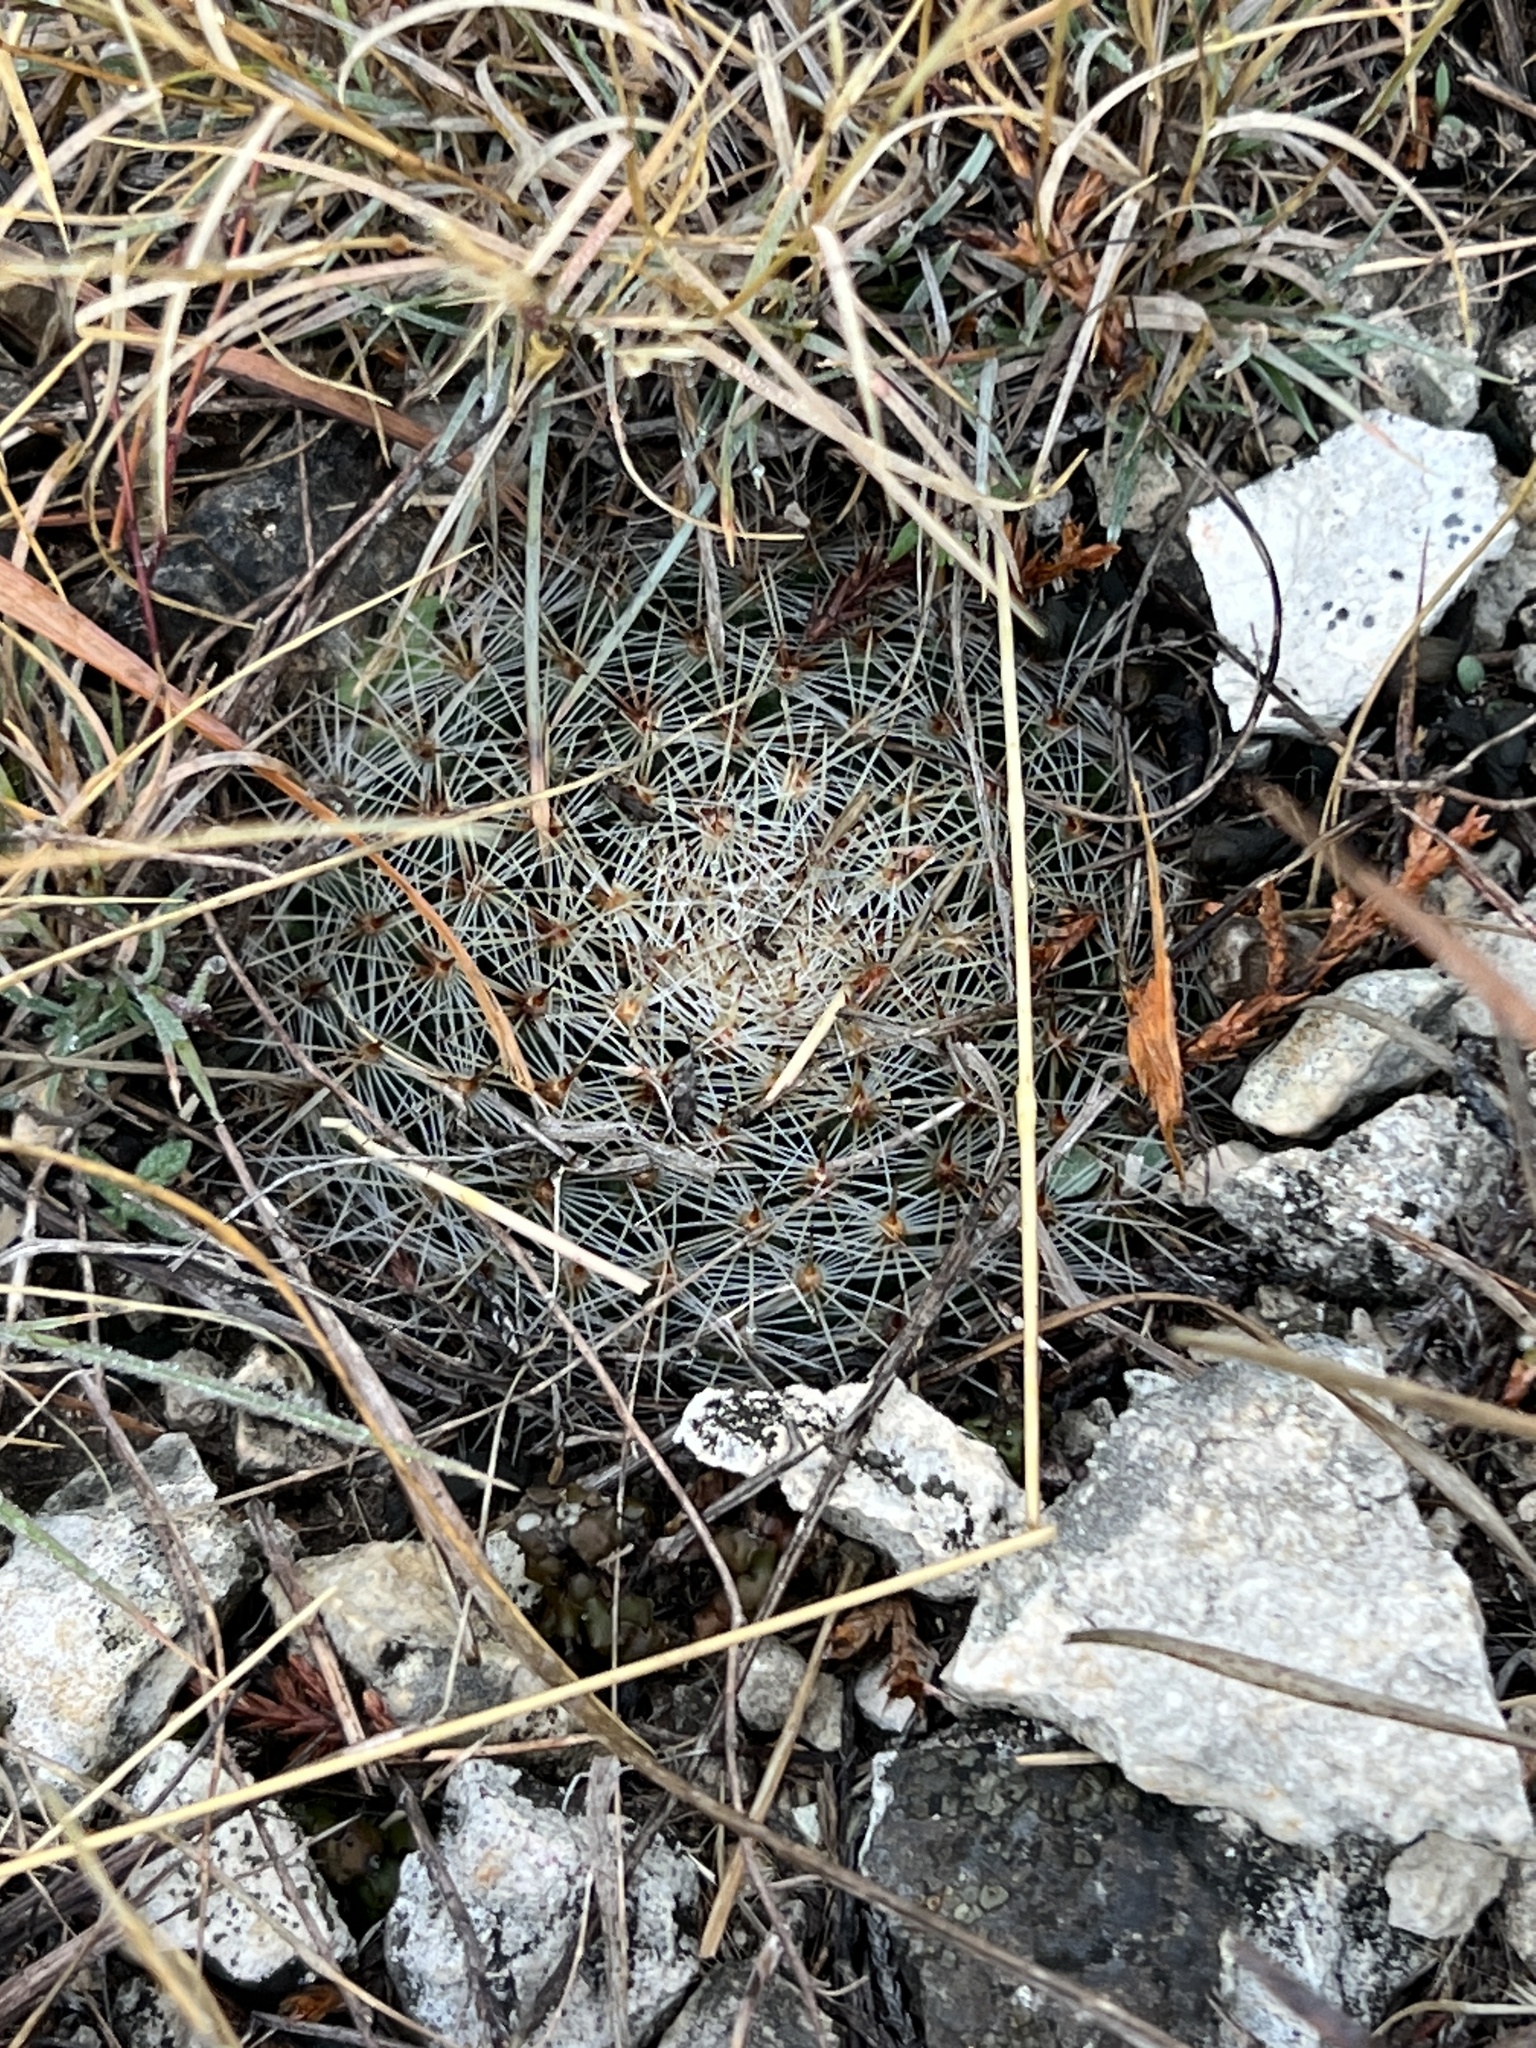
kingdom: Plantae
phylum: Tracheophyta
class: Magnoliopsida
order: Caryophyllales
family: Cactaceae
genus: Mammillaria
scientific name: Mammillaria heyderi
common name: Little nipple cactus
